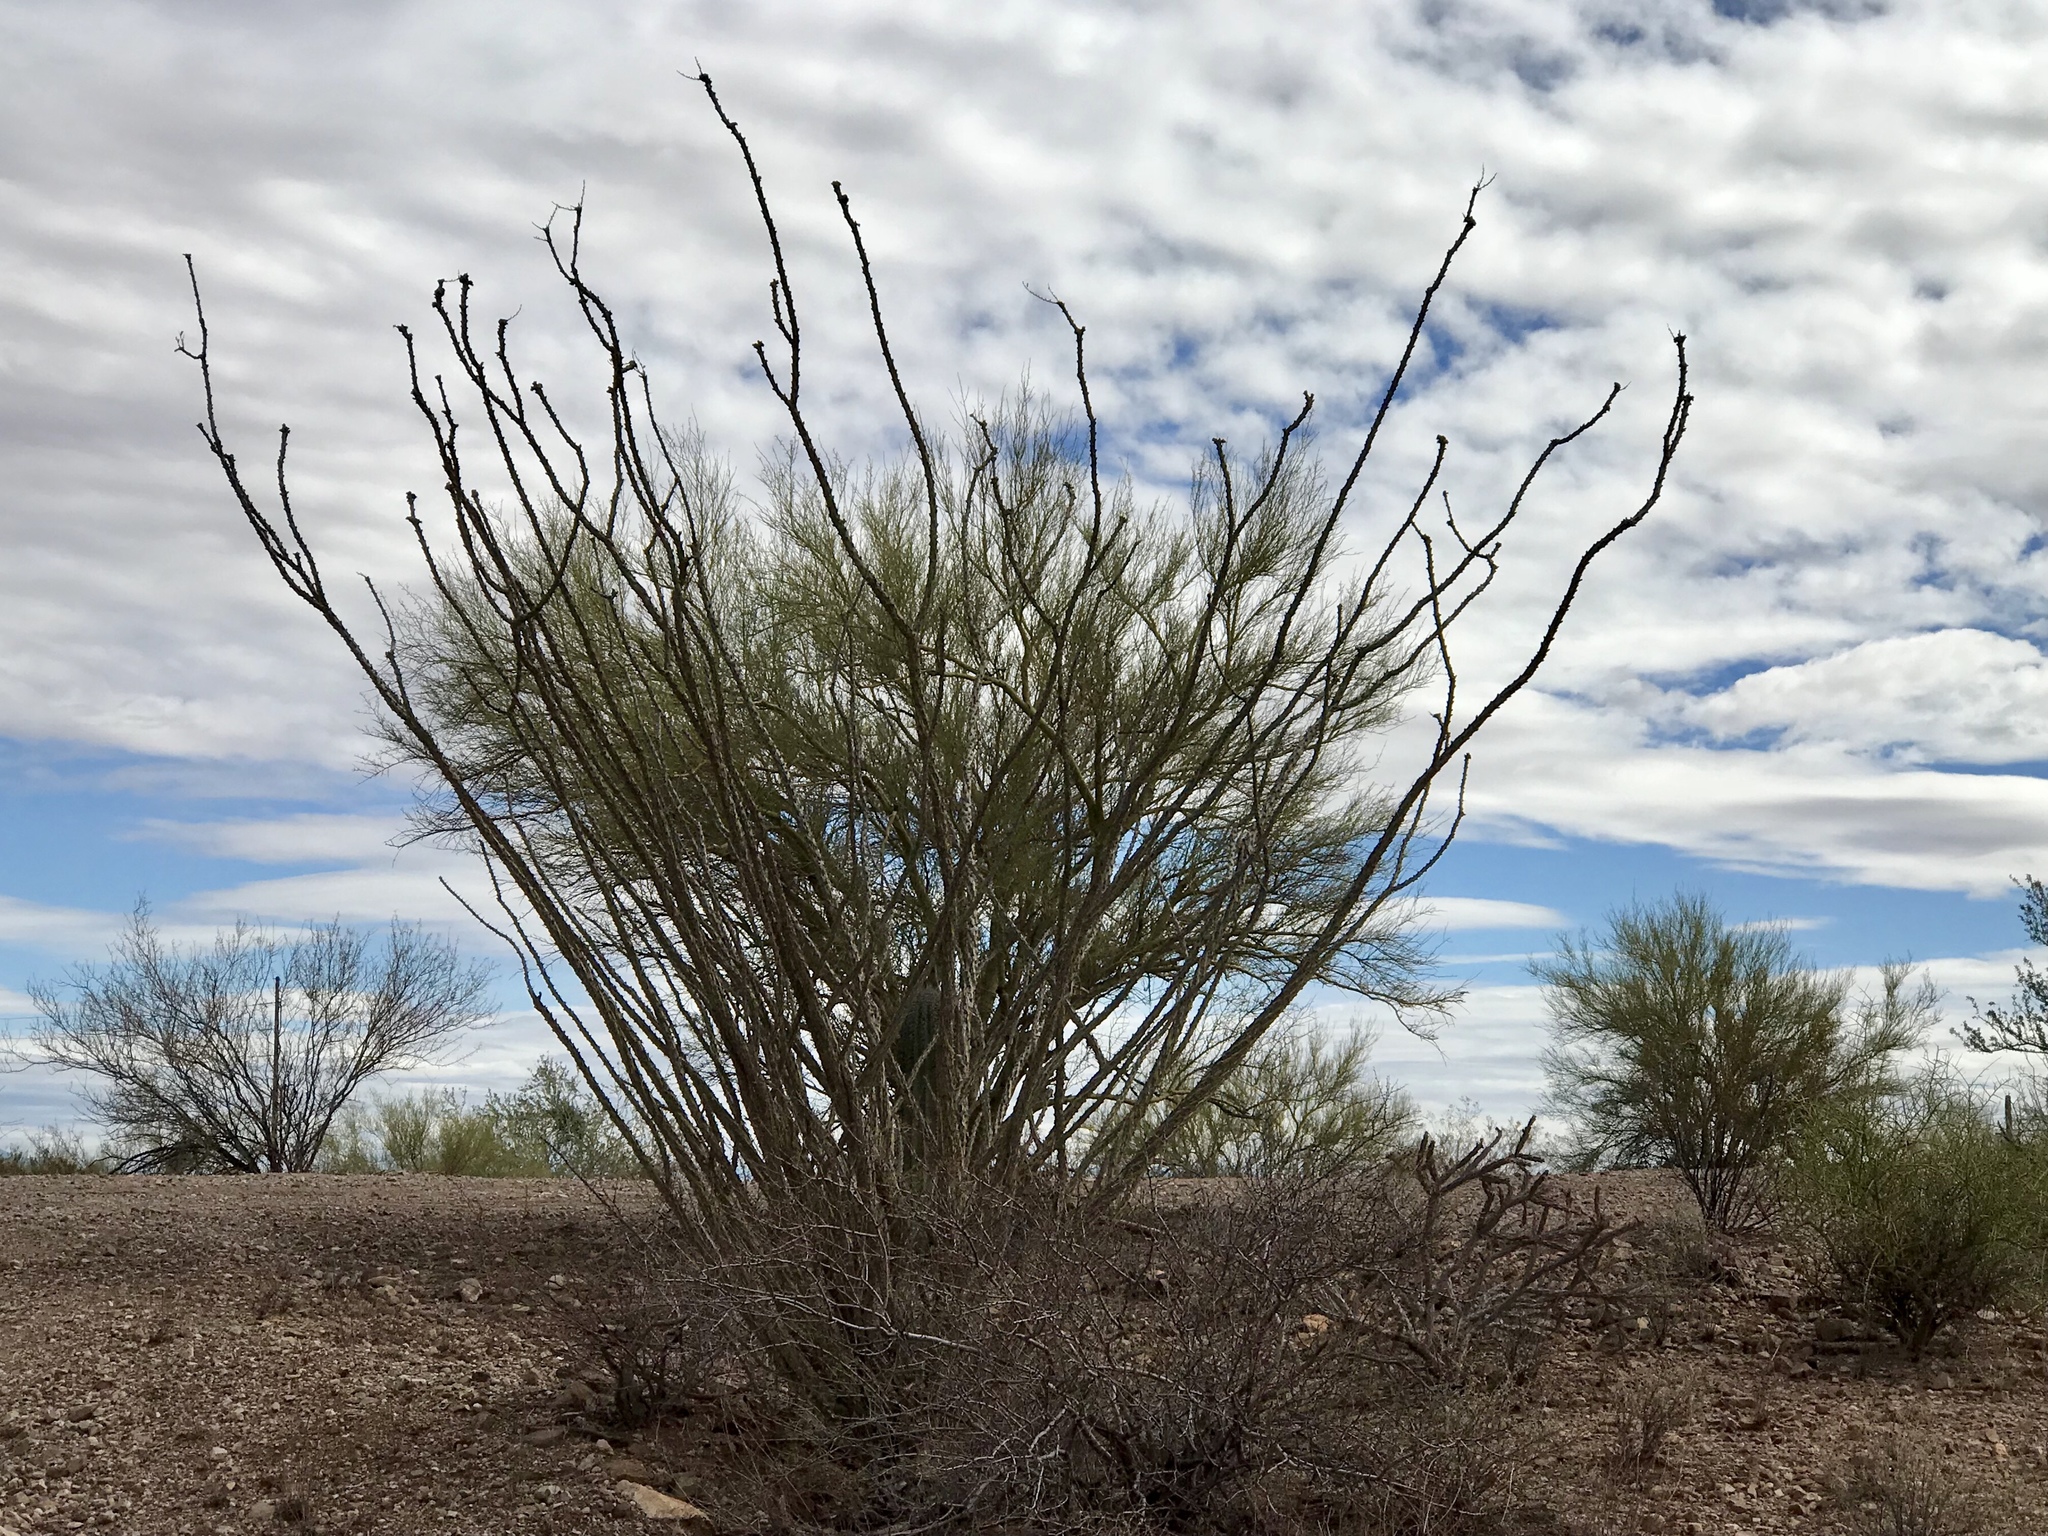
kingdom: Plantae
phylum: Tracheophyta
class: Magnoliopsida
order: Ericales
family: Fouquieriaceae
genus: Fouquieria
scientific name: Fouquieria splendens
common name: Vine-cactus
